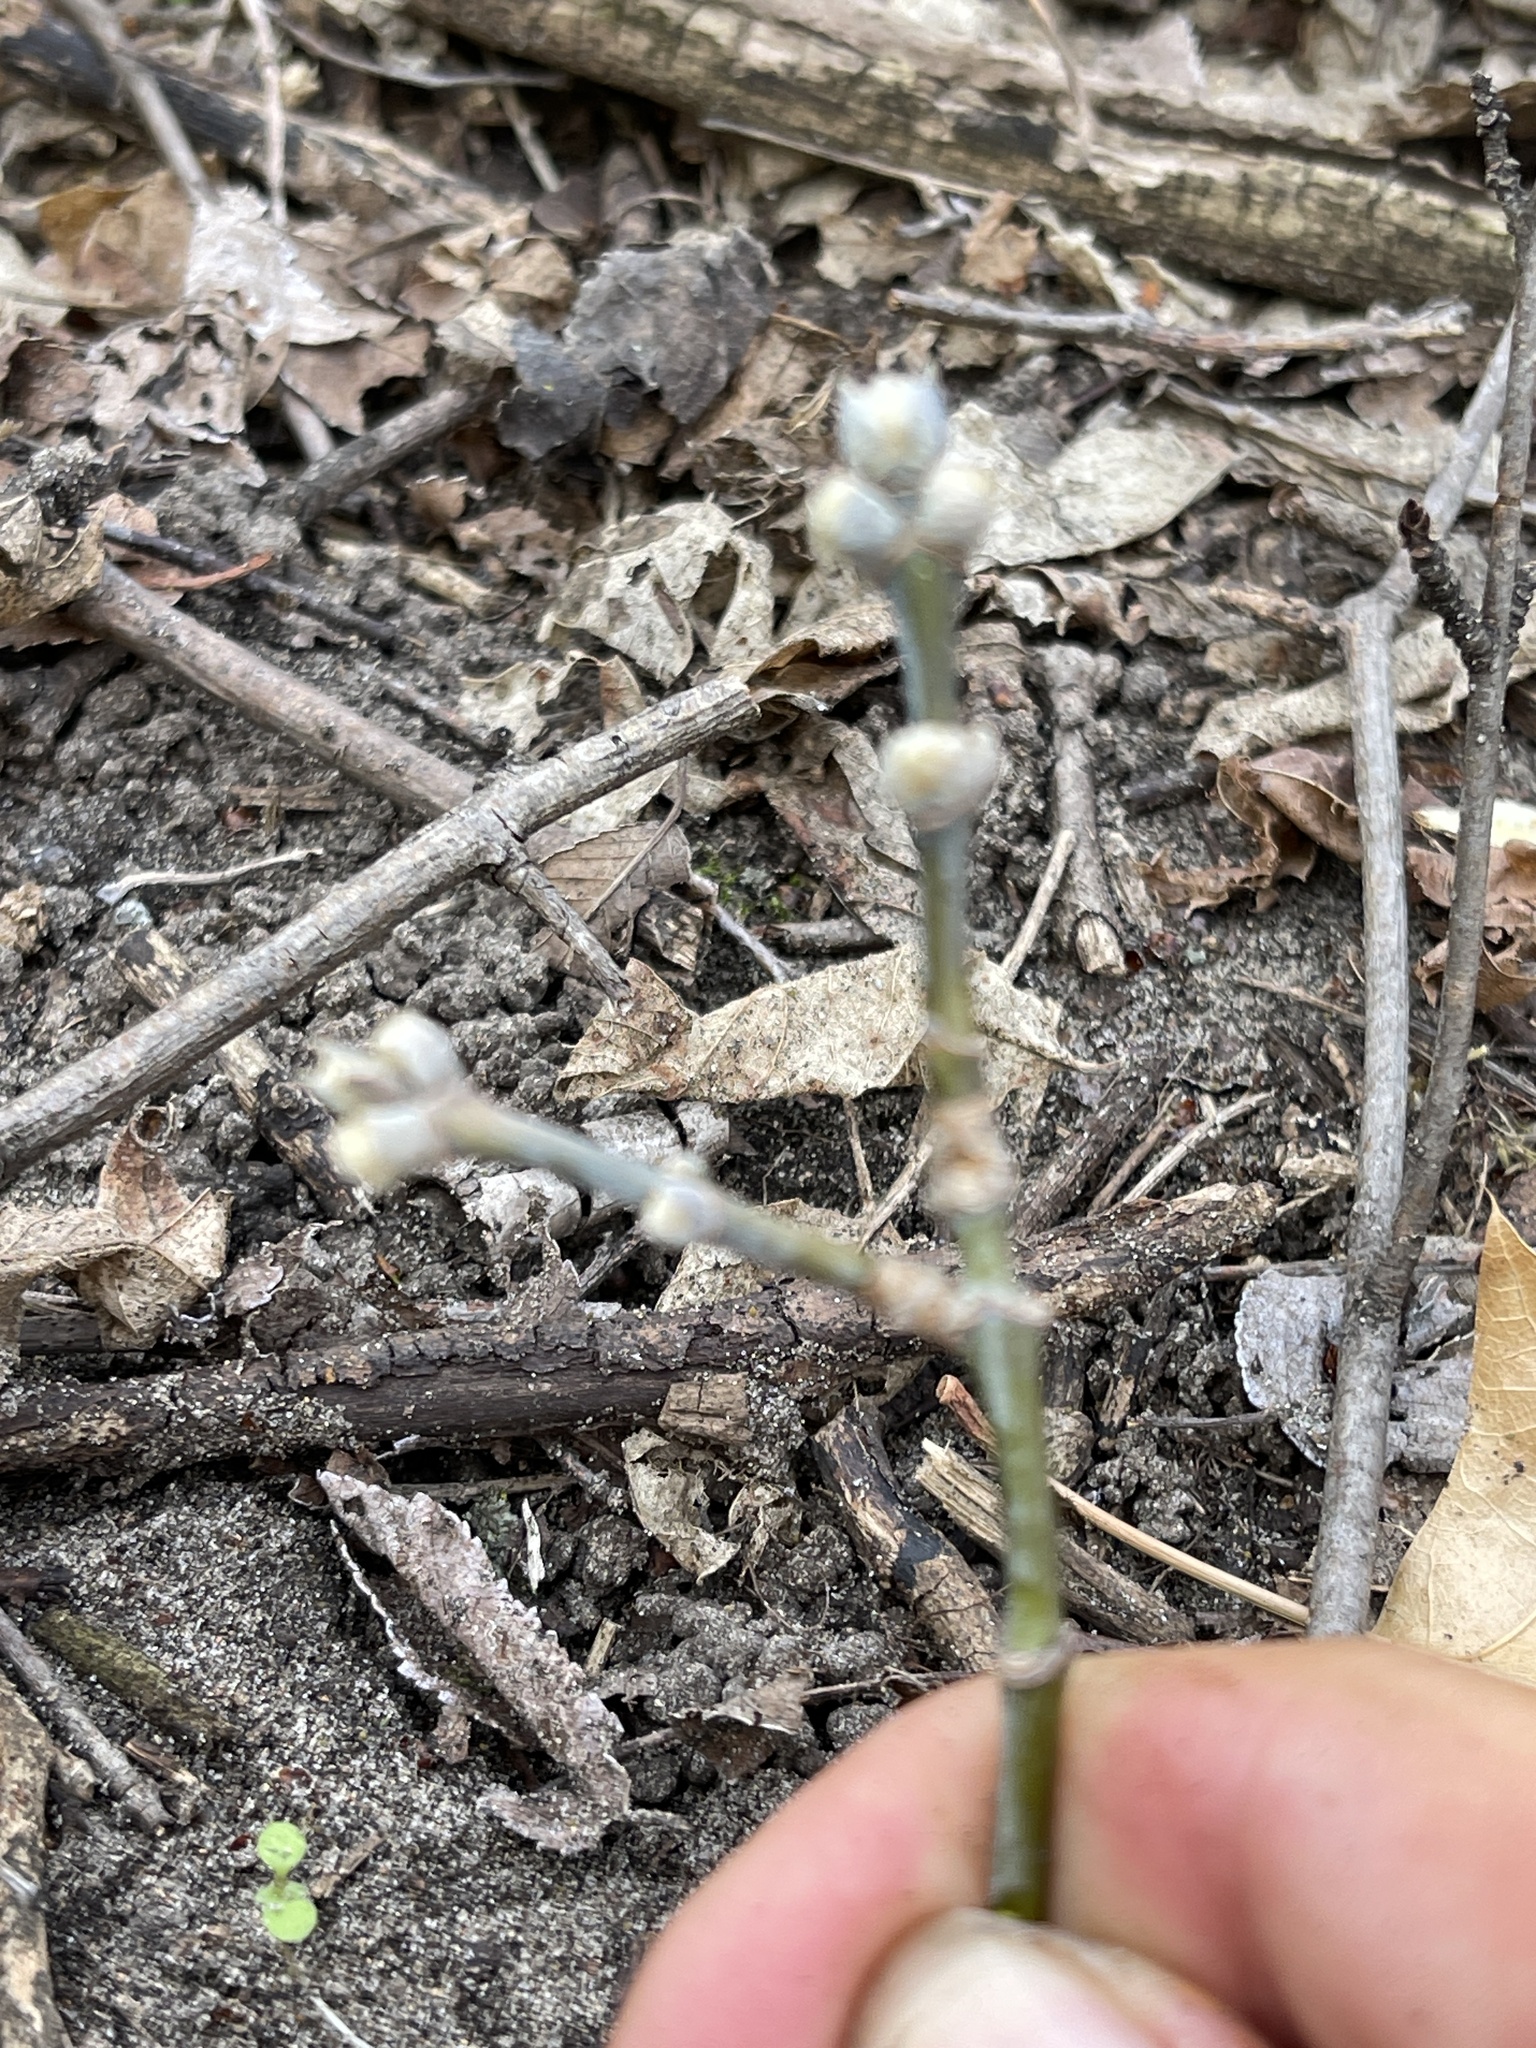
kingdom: Plantae
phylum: Tracheophyta
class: Magnoliopsida
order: Sapindales
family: Sapindaceae
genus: Acer
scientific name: Acer negundo
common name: Ashleaf maple
